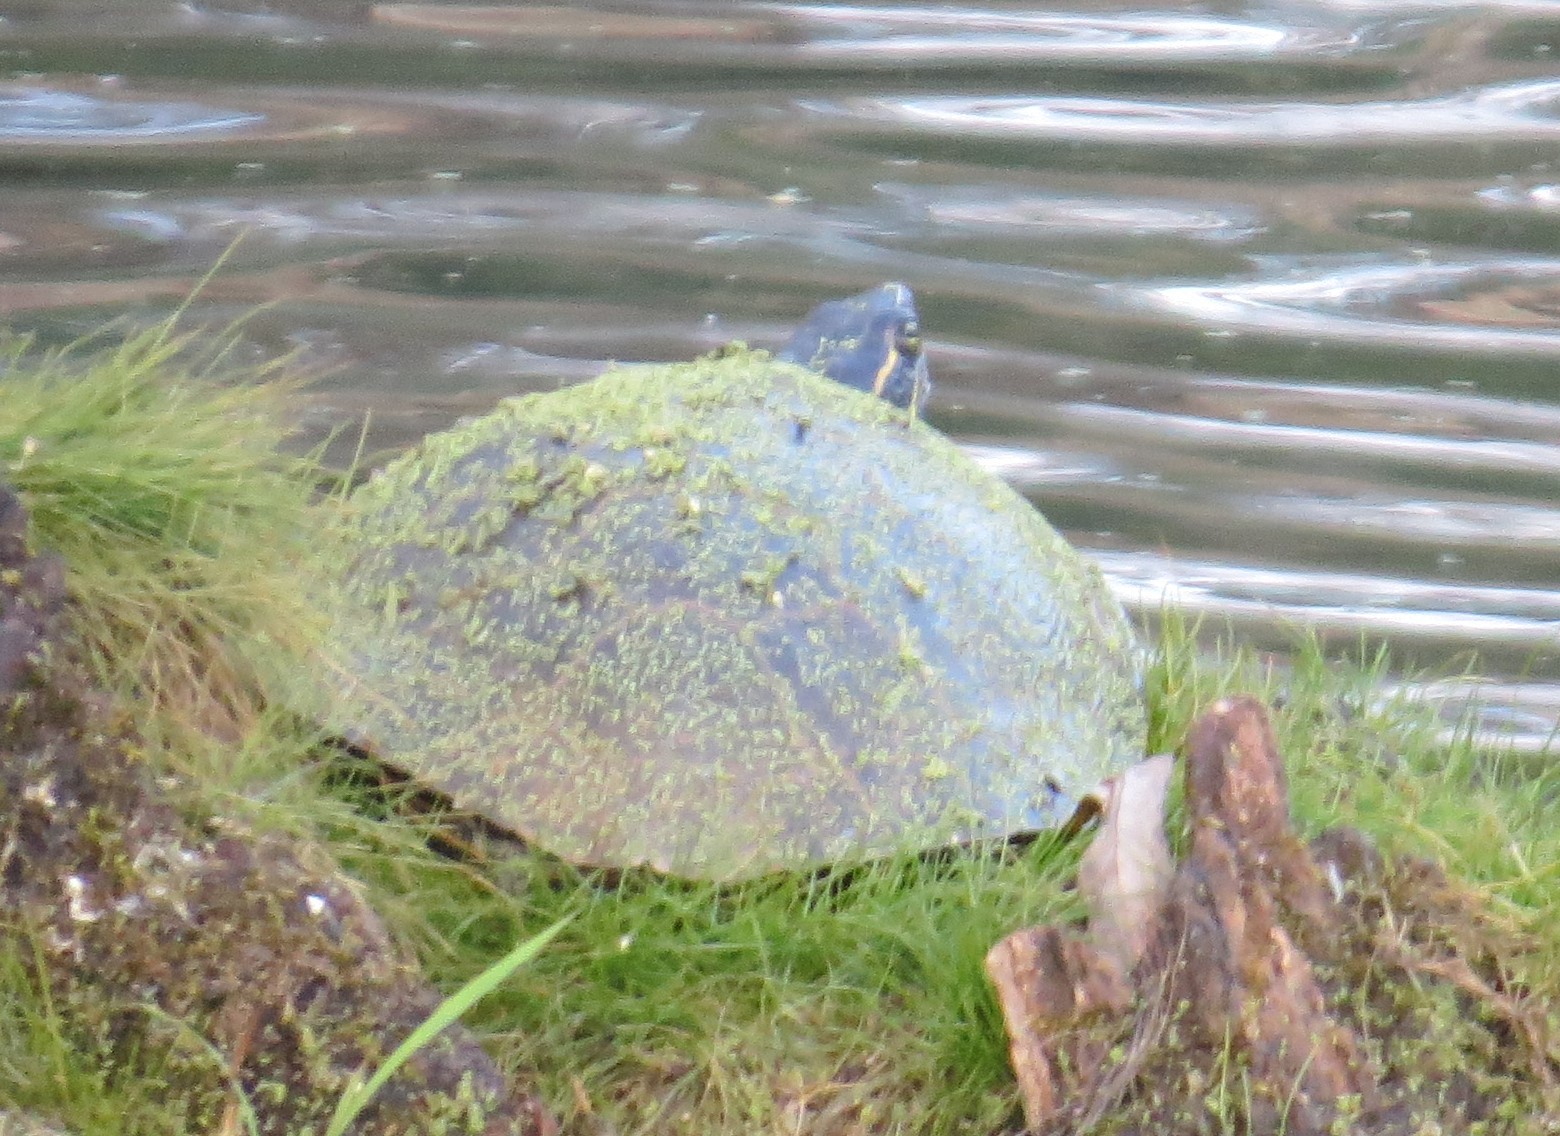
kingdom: Animalia
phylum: Chordata
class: Testudines
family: Emydidae
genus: Chrysemys
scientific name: Chrysemys picta
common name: Painted turtle
